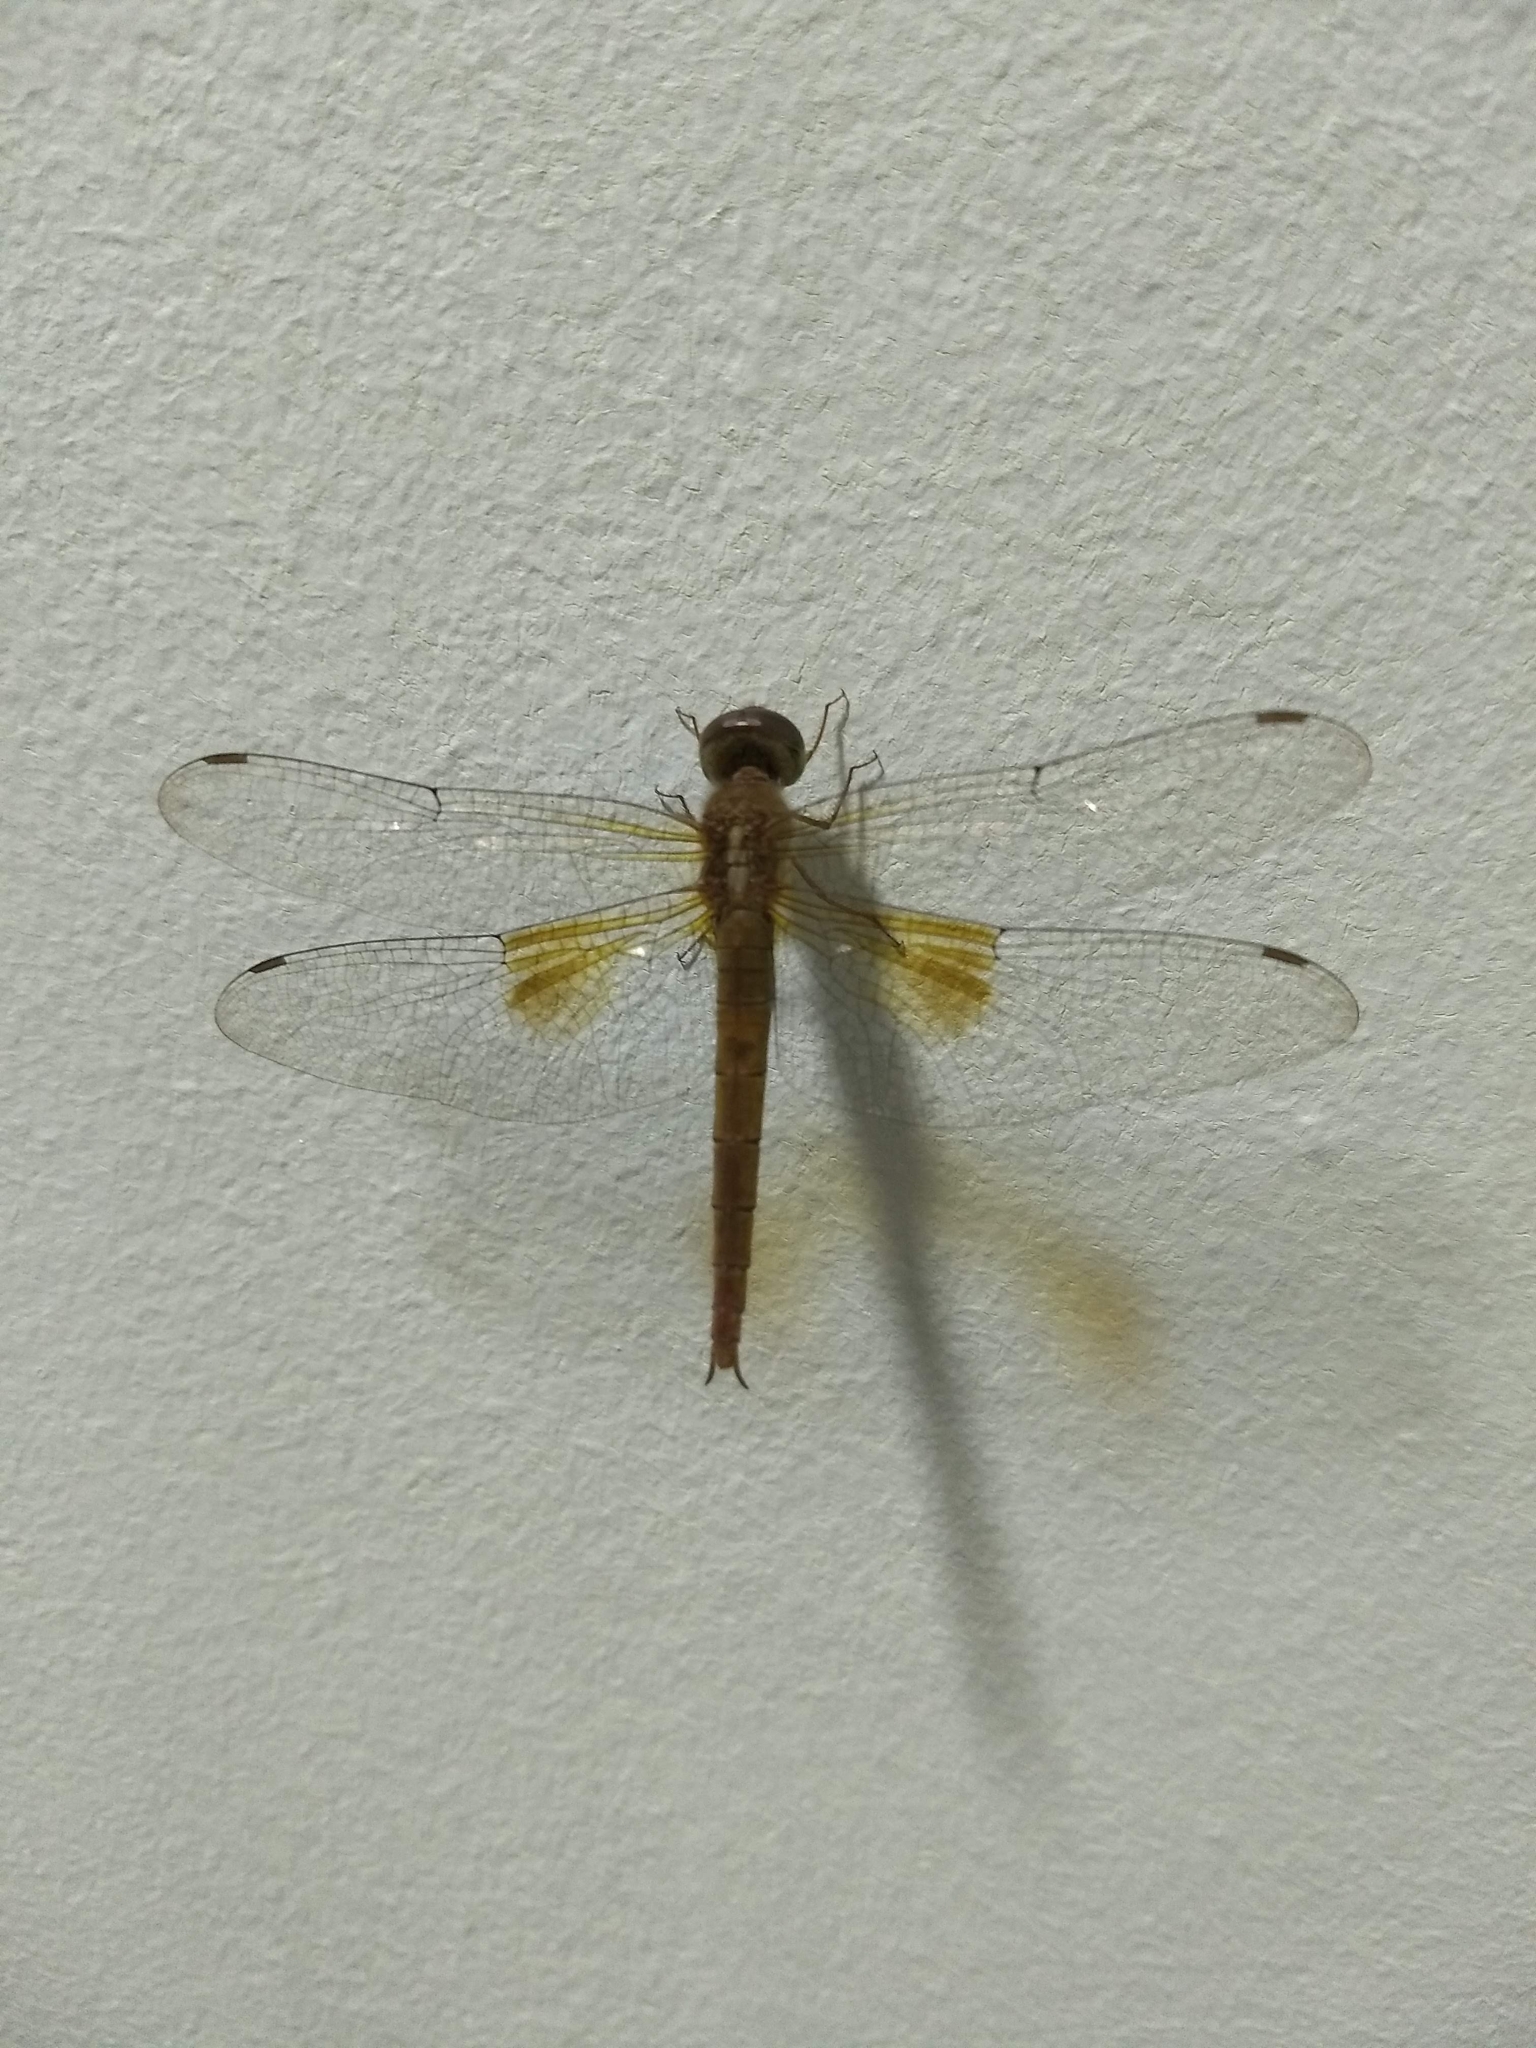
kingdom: Animalia
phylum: Arthropoda
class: Insecta
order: Odonata
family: Libellulidae
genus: Tholymis
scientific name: Tholymis tillarga
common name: Coral-tailed cloud wing
